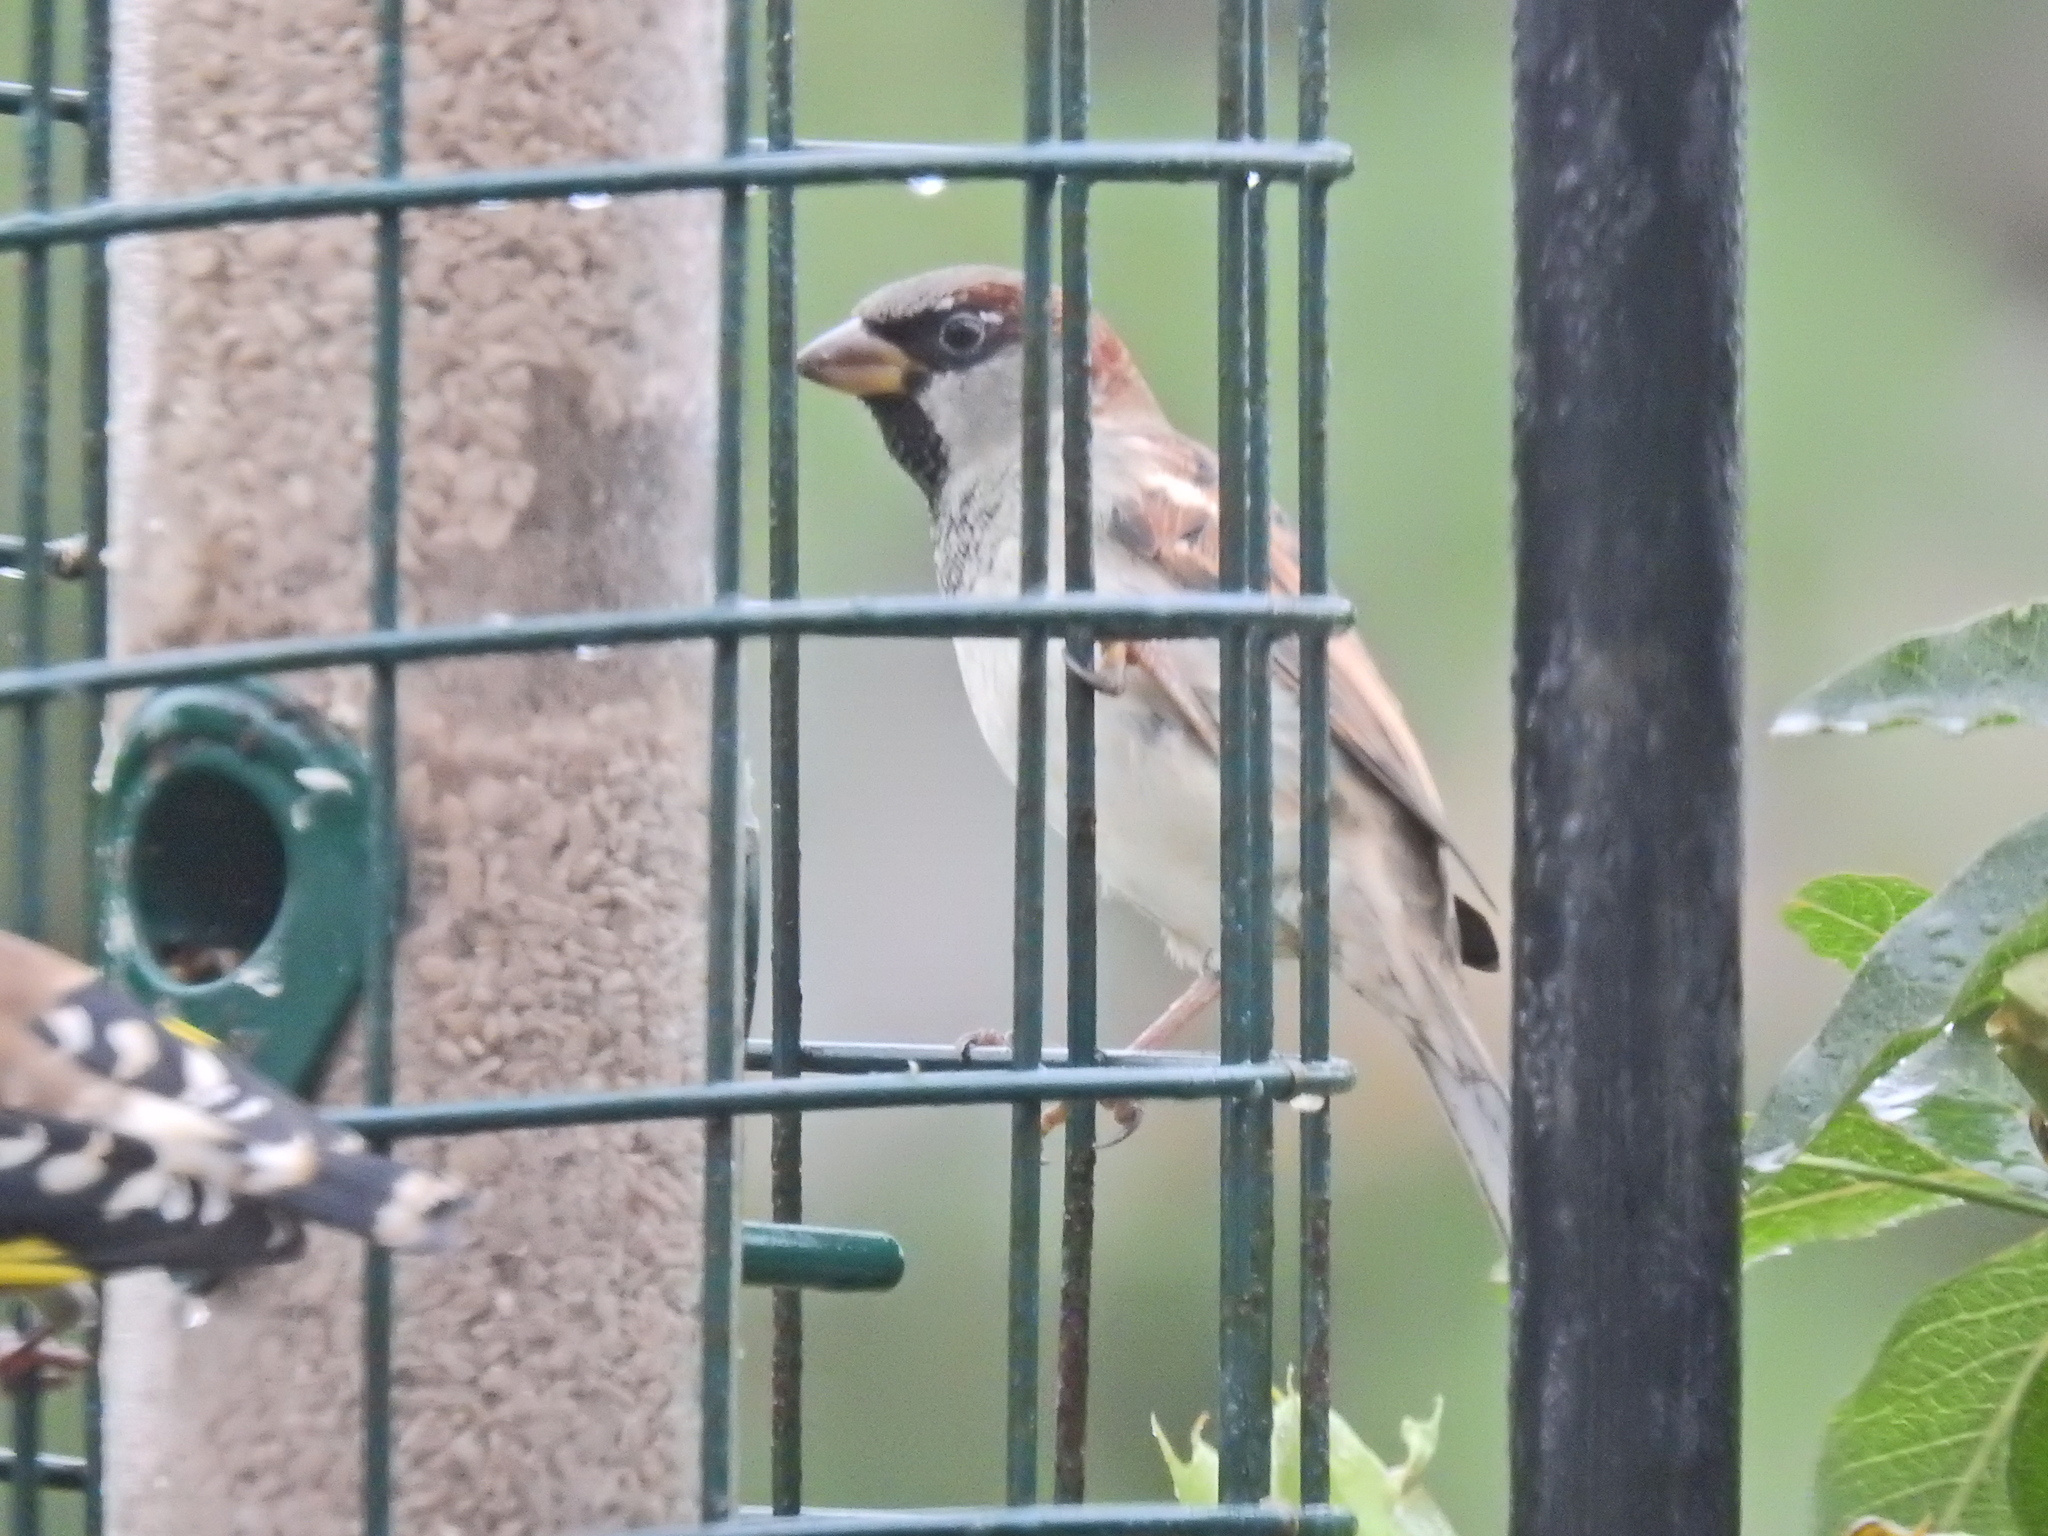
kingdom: Animalia
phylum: Chordata
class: Aves
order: Passeriformes
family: Passeridae
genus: Passer
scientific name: Passer domesticus
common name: House sparrow
